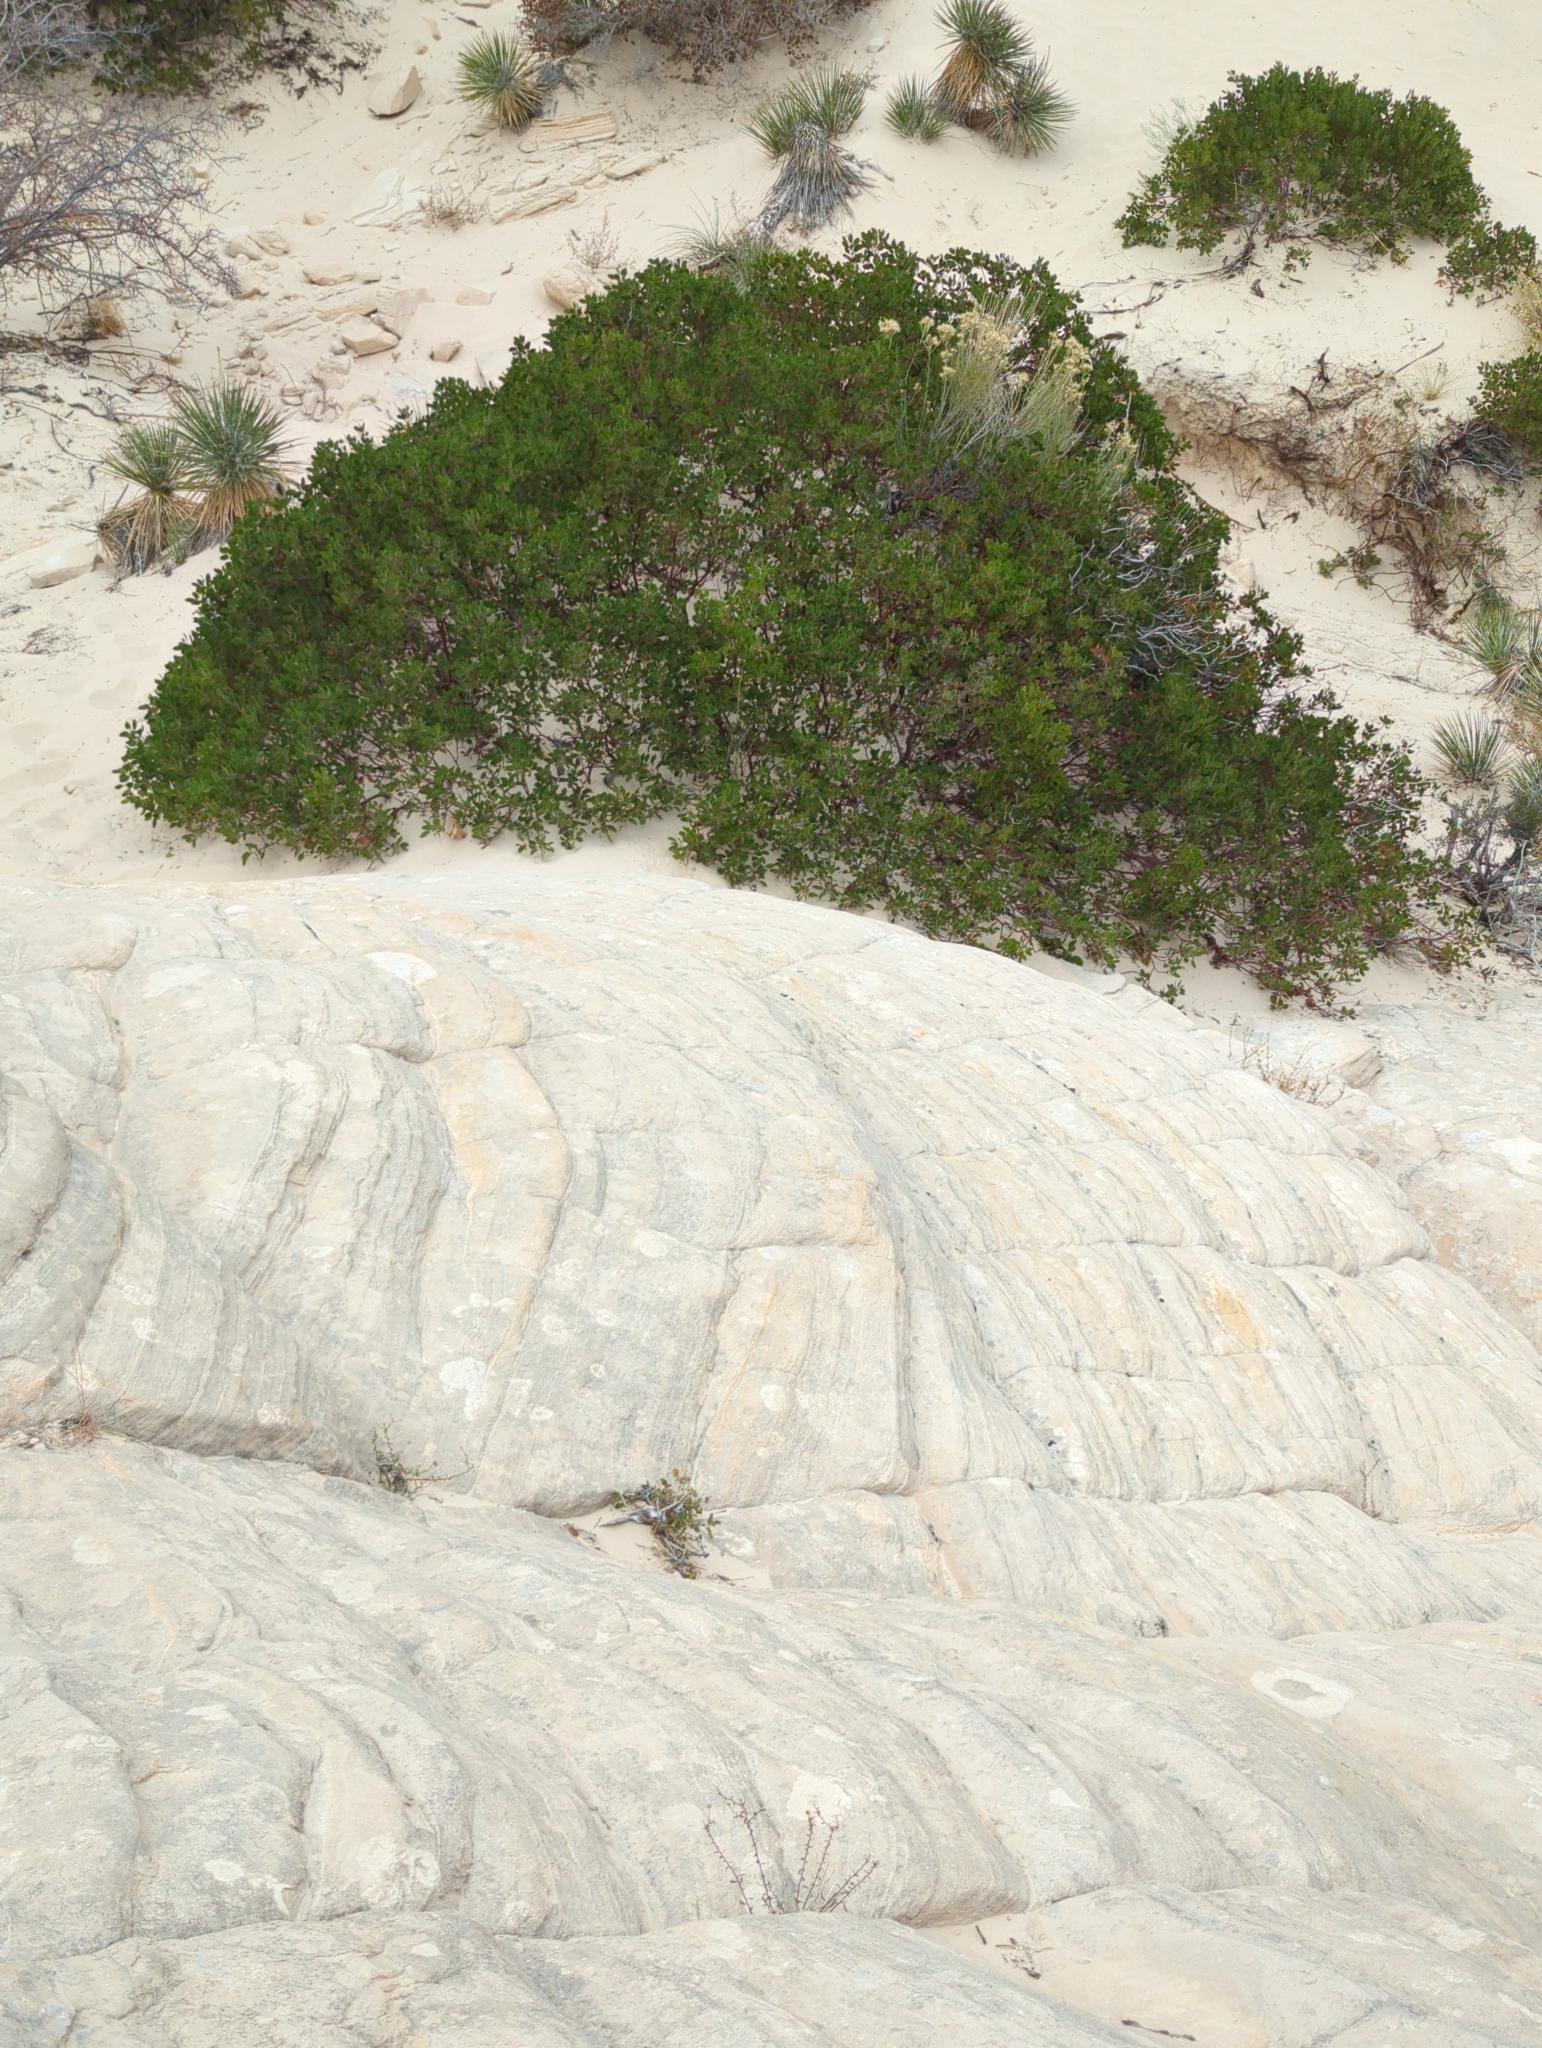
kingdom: Plantae
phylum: Tracheophyta
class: Magnoliopsida
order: Ericales
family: Ericaceae
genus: Arctostaphylos
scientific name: Arctostaphylos pungens
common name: Mexican manzanita
